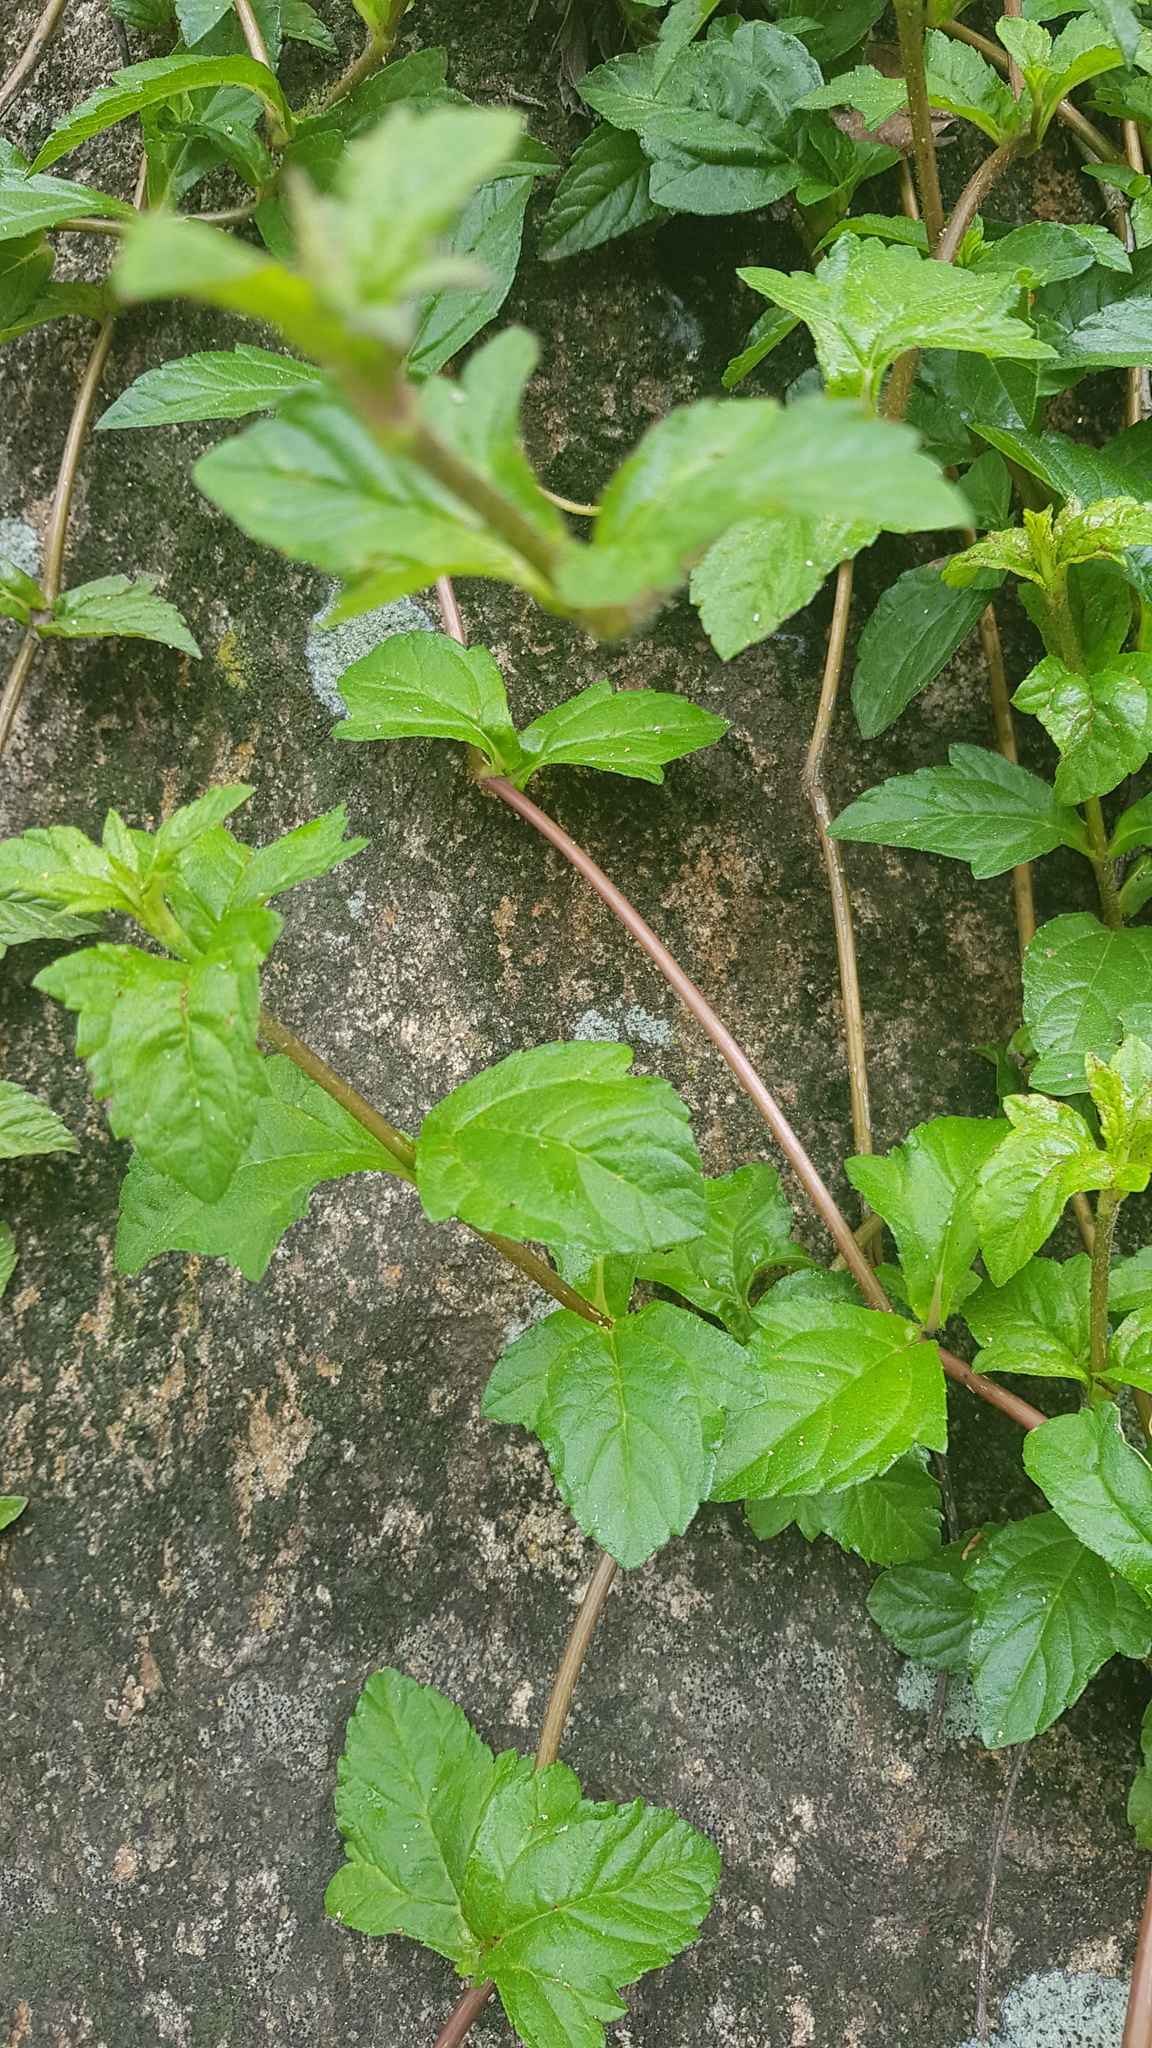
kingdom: Plantae
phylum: Tracheophyta
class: Magnoliopsida
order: Asterales
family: Asteraceae
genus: Sphagneticola
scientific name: Sphagneticola trilobata
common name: Bay biscayne creeping-oxeye
